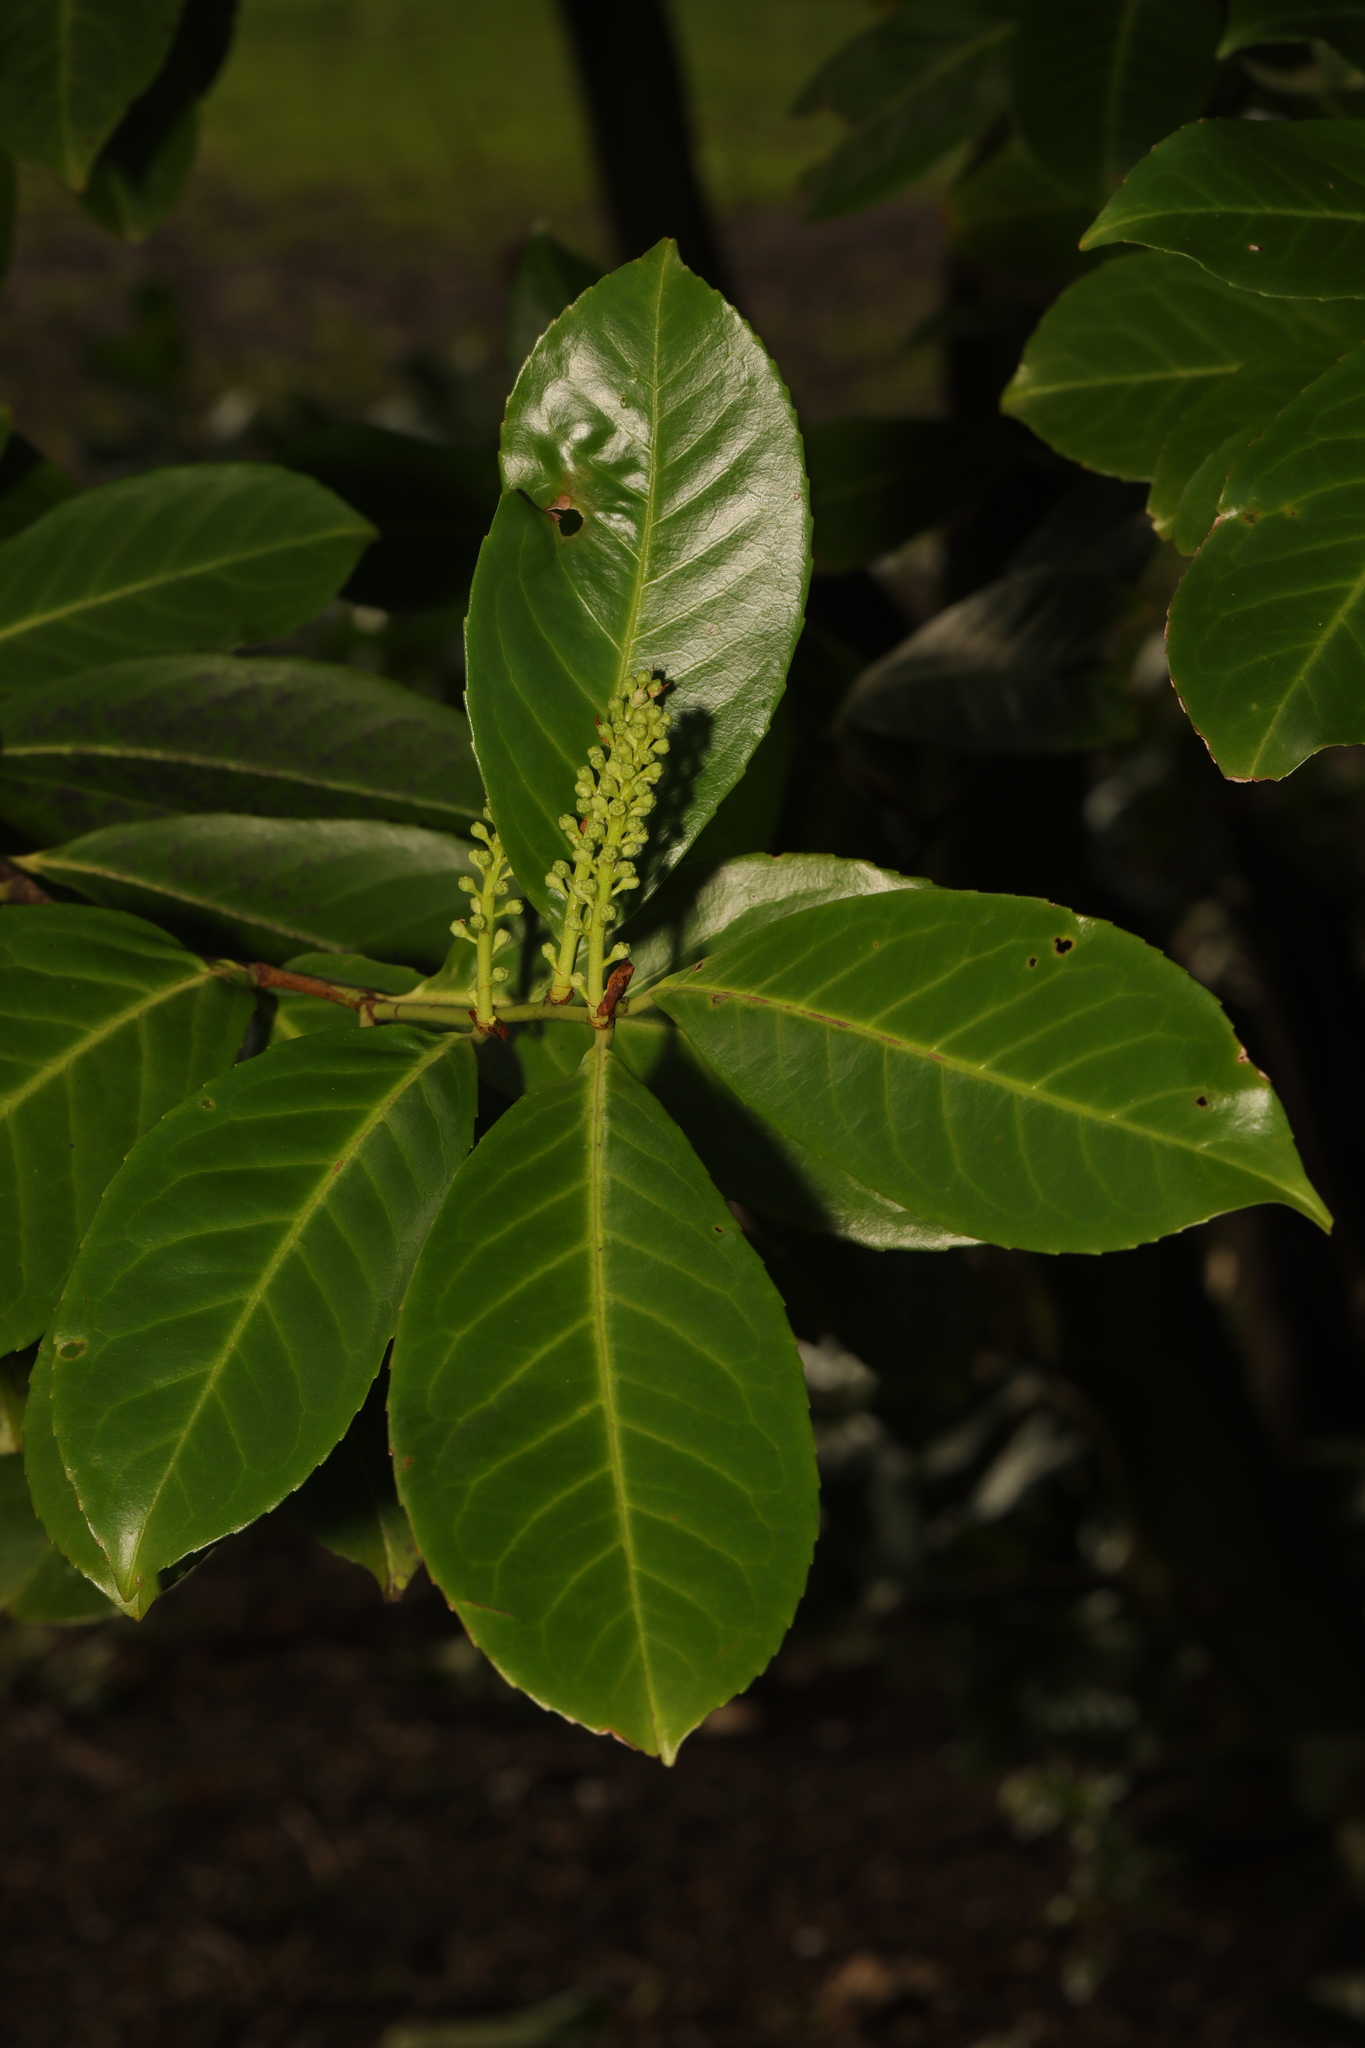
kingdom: Plantae
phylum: Tracheophyta
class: Magnoliopsida
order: Rosales
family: Rosaceae
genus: Prunus
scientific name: Prunus laurocerasus
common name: Cherry laurel
